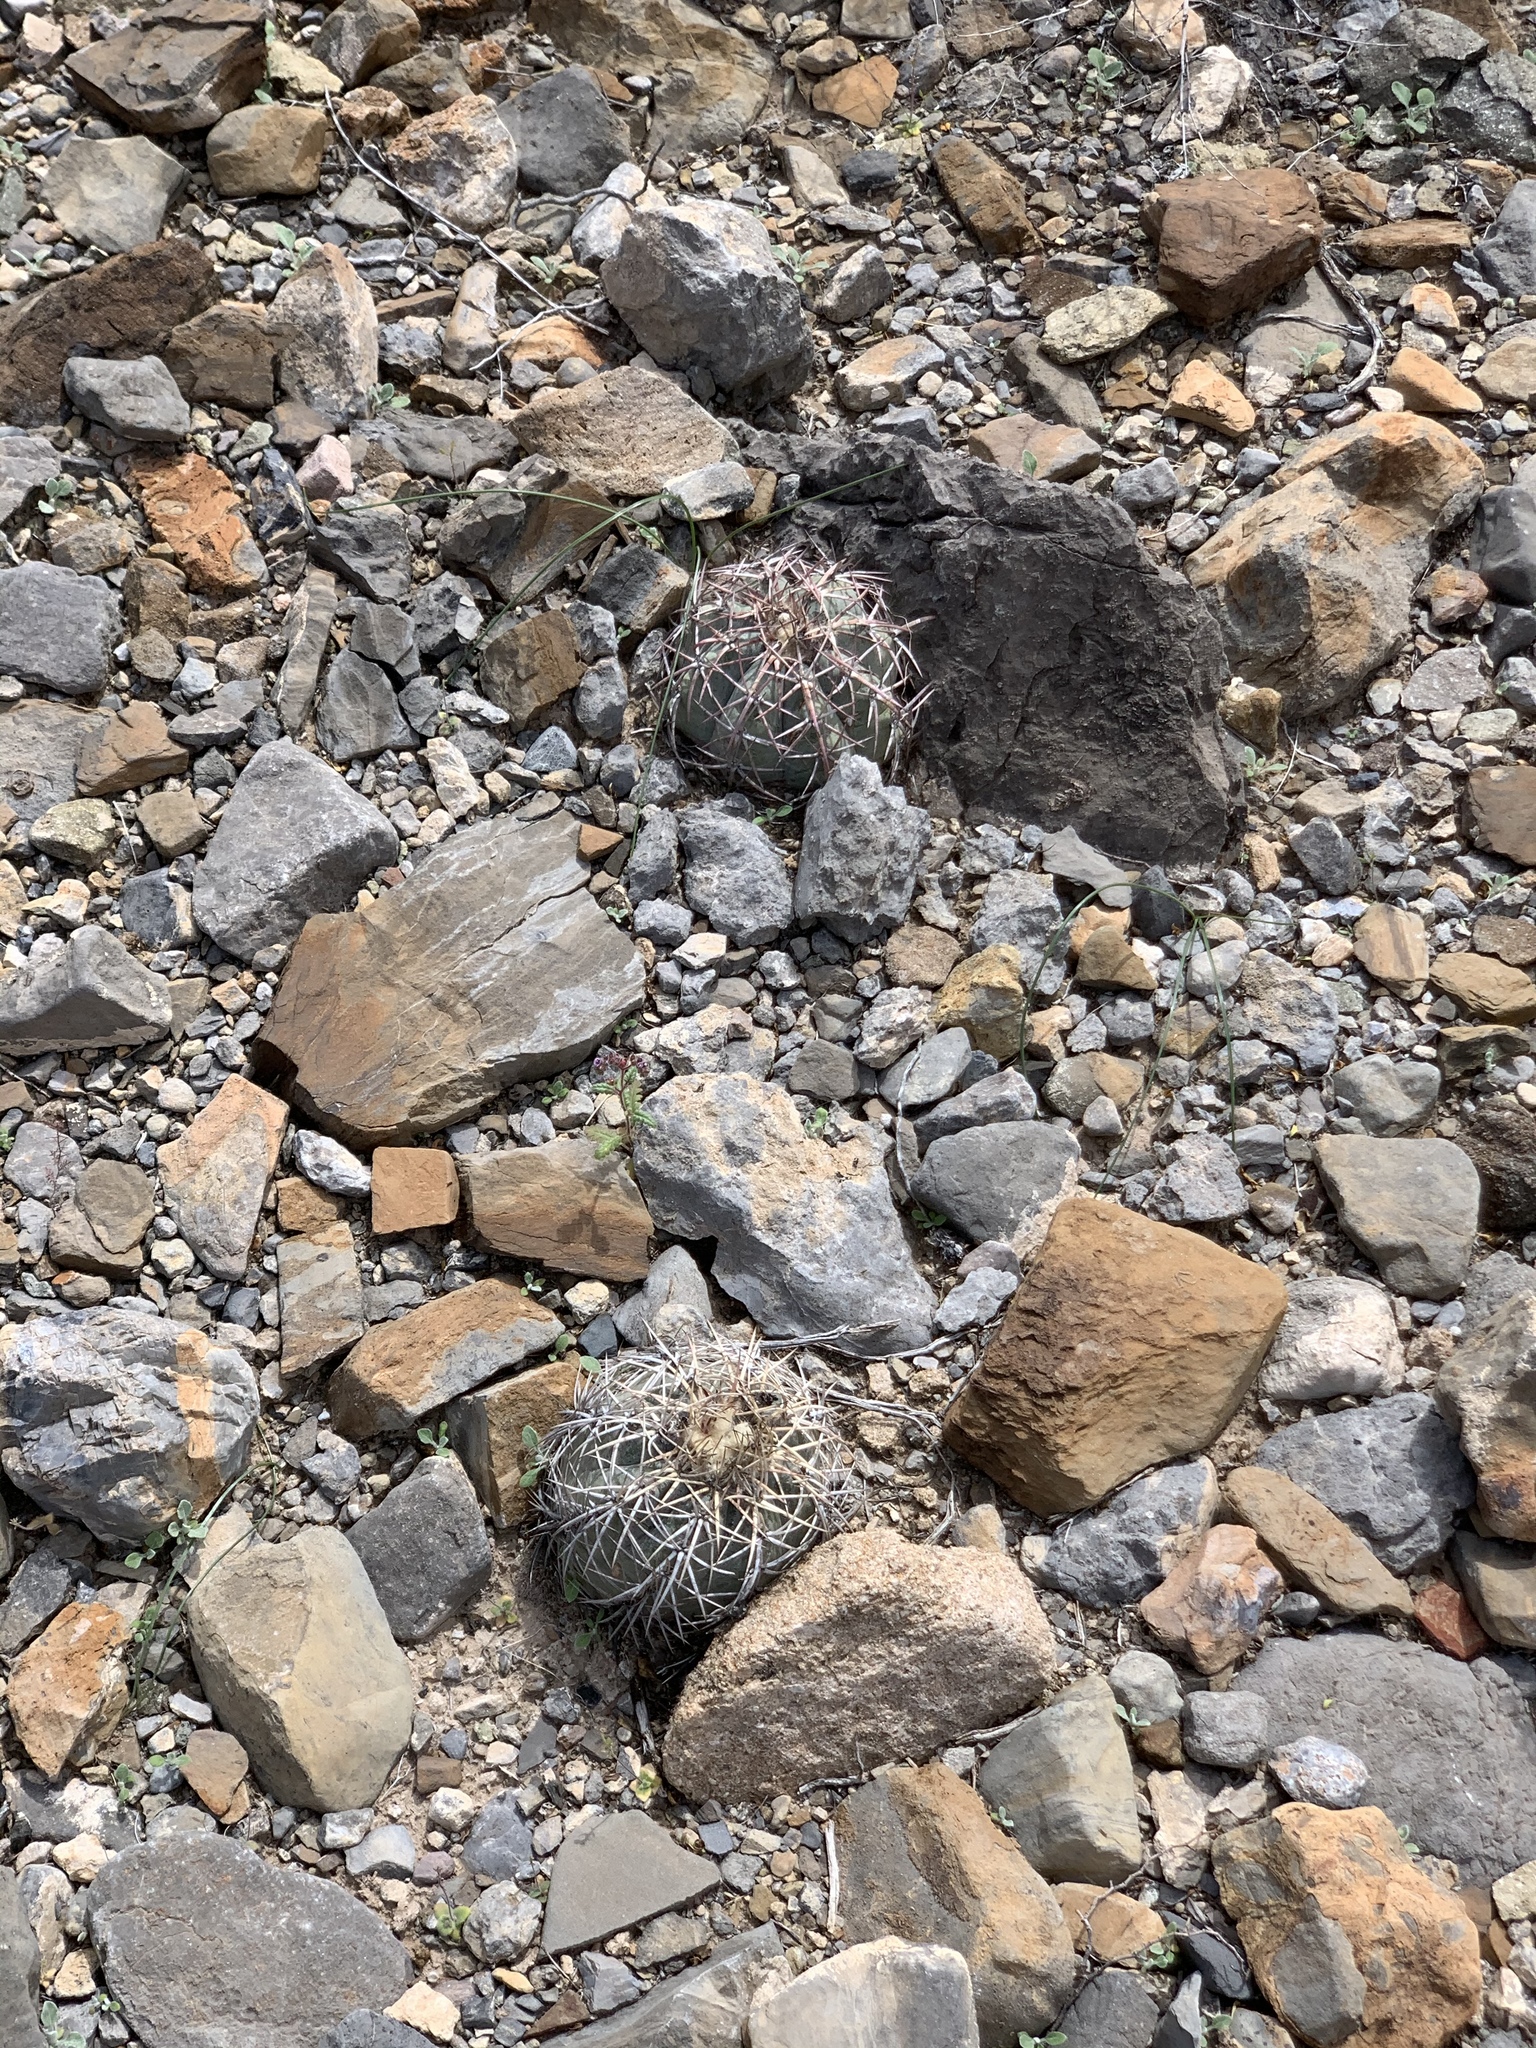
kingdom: Plantae
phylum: Tracheophyta
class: Magnoliopsida
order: Caryophyllales
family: Cactaceae
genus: Echinocactus
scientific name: Echinocactus horizonthalonius
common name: Devilshead
